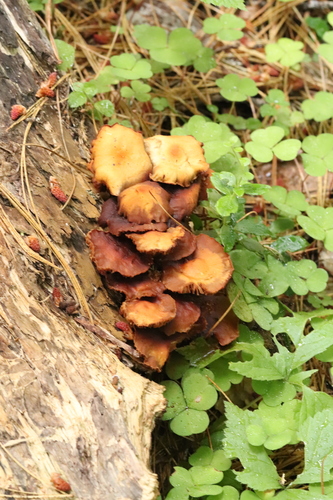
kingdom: Fungi
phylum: Basidiomycota
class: Agaricomycetes
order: Agaricales
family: Strophariaceae
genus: Kuehneromyces
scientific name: Kuehneromyces mutabilis
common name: Sheathed woodtuft
